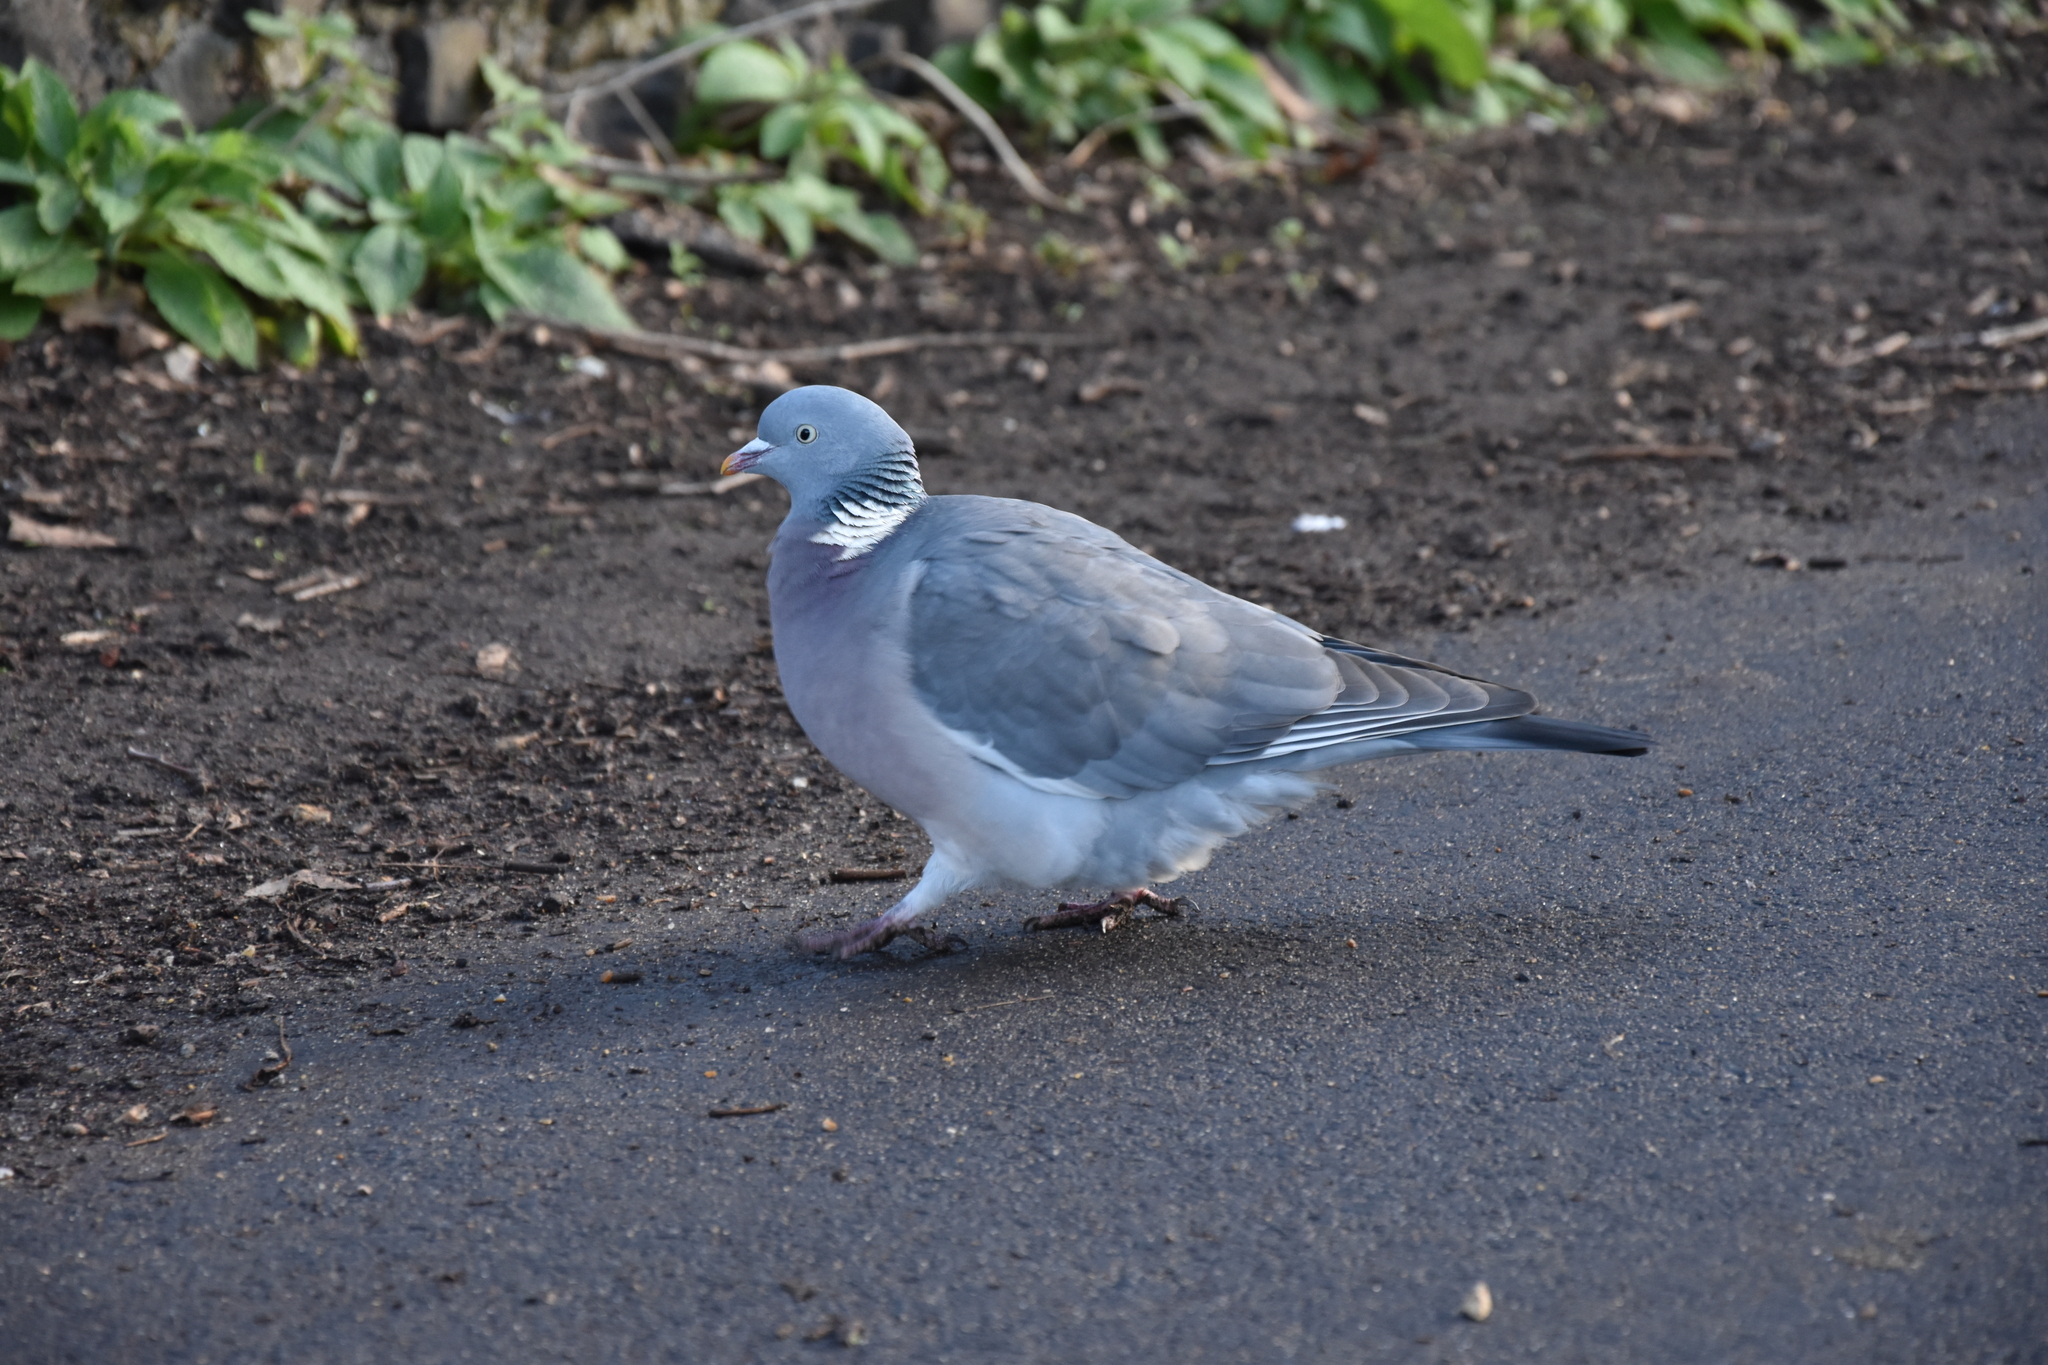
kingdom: Animalia
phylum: Chordata
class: Aves
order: Columbiformes
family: Columbidae
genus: Columba
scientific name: Columba palumbus
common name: Common wood pigeon
